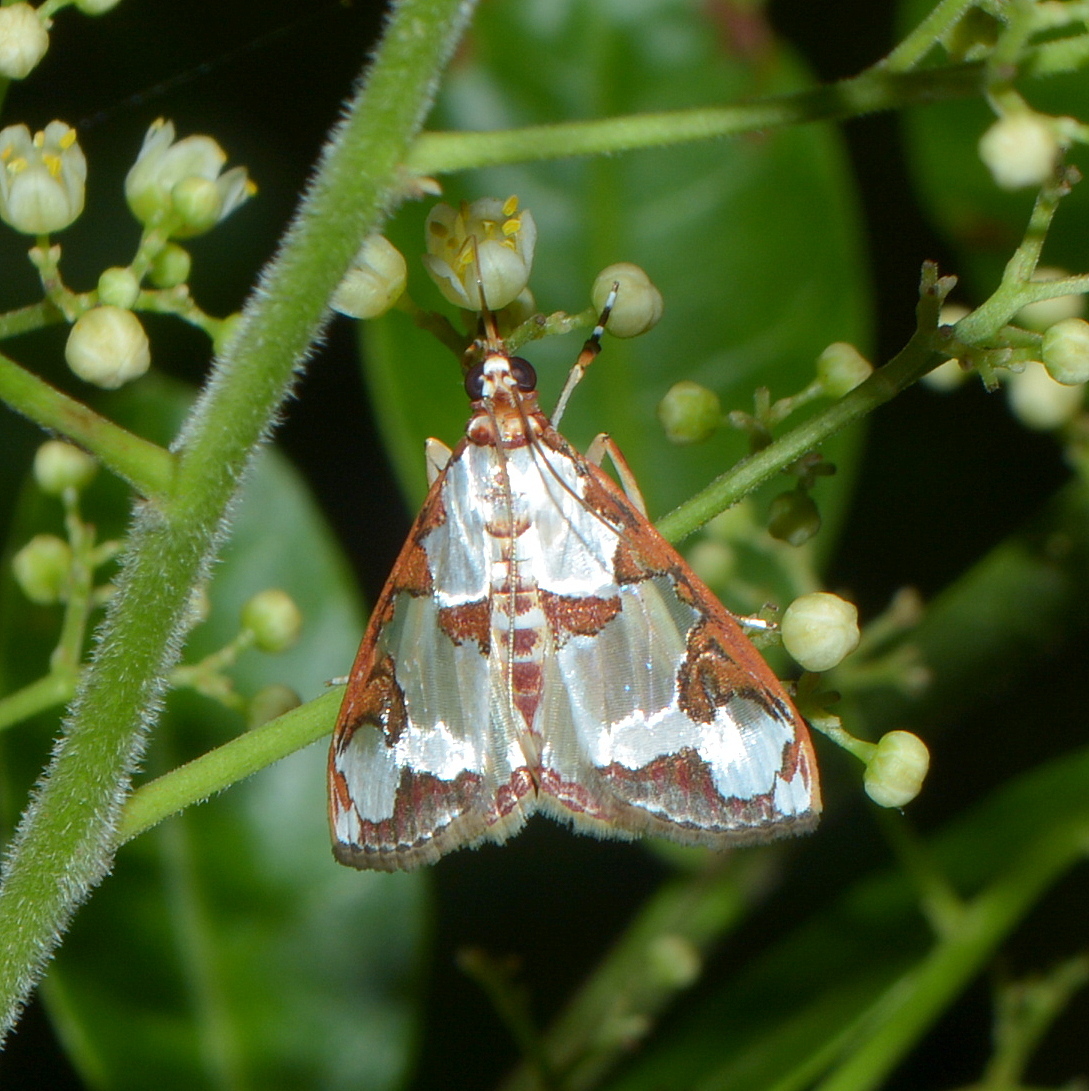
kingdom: Animalia
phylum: Arthropoda
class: Insecta
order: Lepidoptera
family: Crambidae
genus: Argyrarcha
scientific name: Argyrarcha margarita
